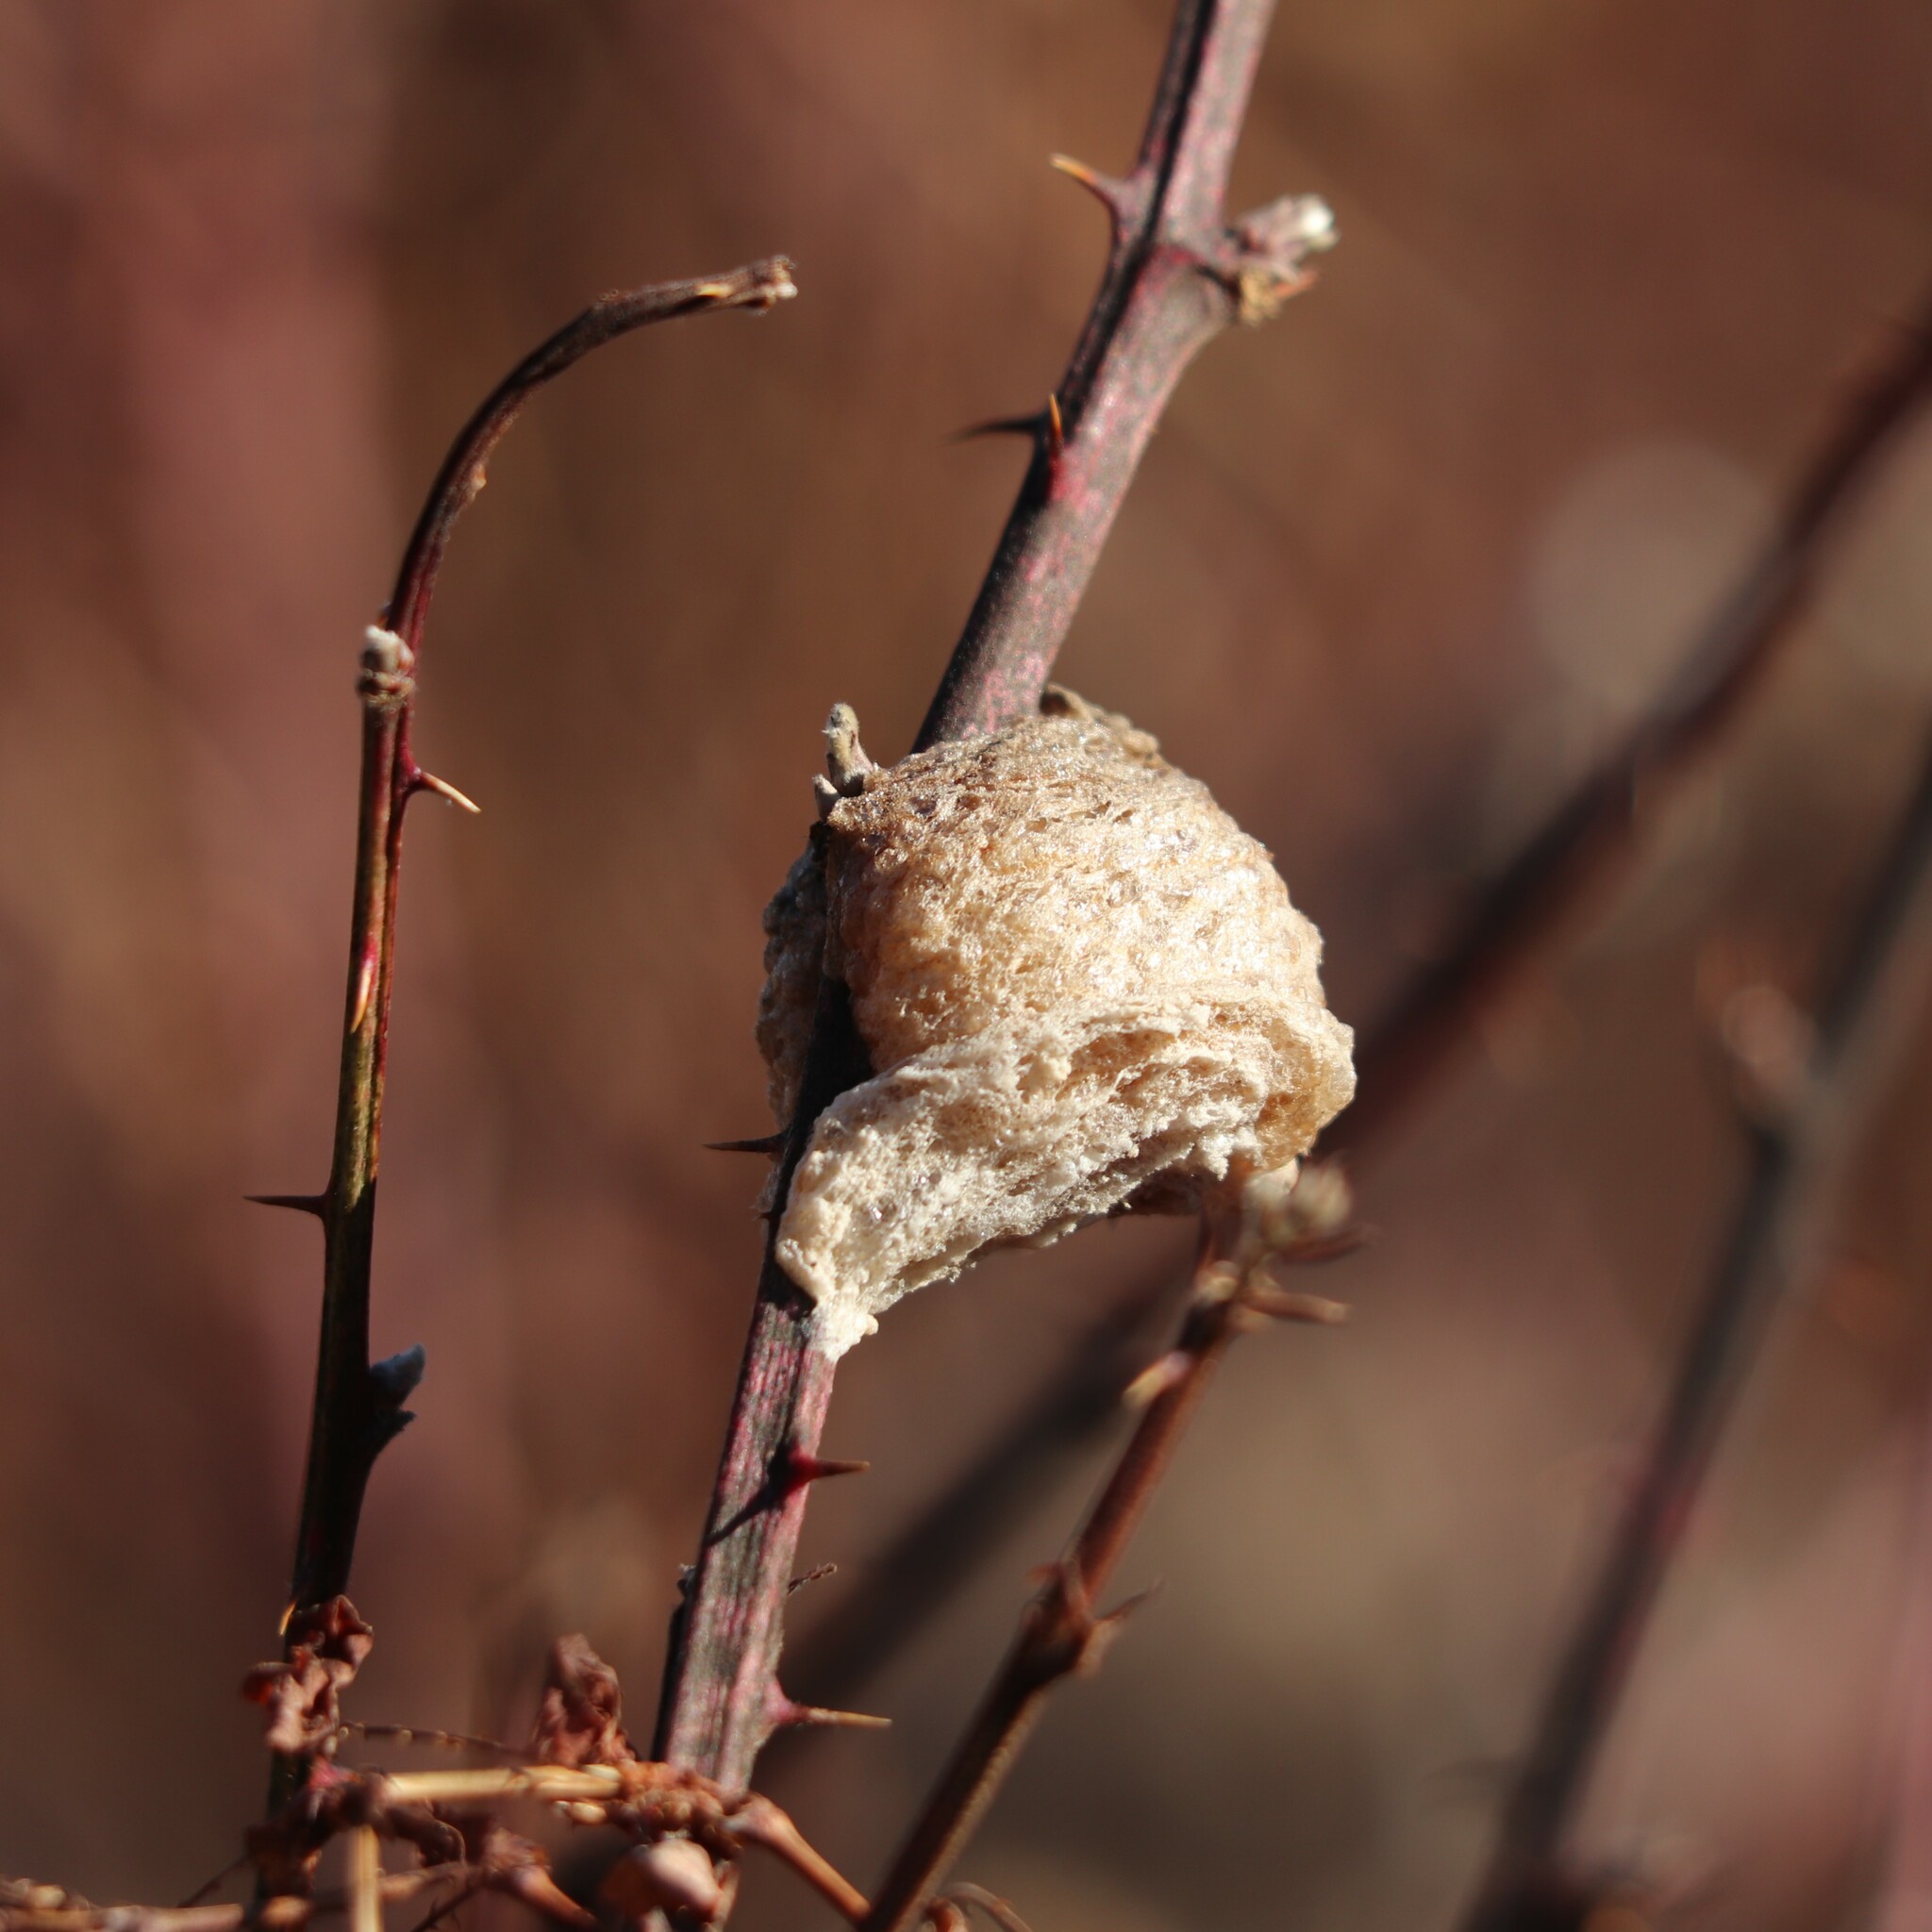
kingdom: Animalia
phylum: Arthropoda
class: Insecta
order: Mantodea
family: Mantidae
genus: Tenodera
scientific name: Tenodera sinensis
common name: Chinese mantis
